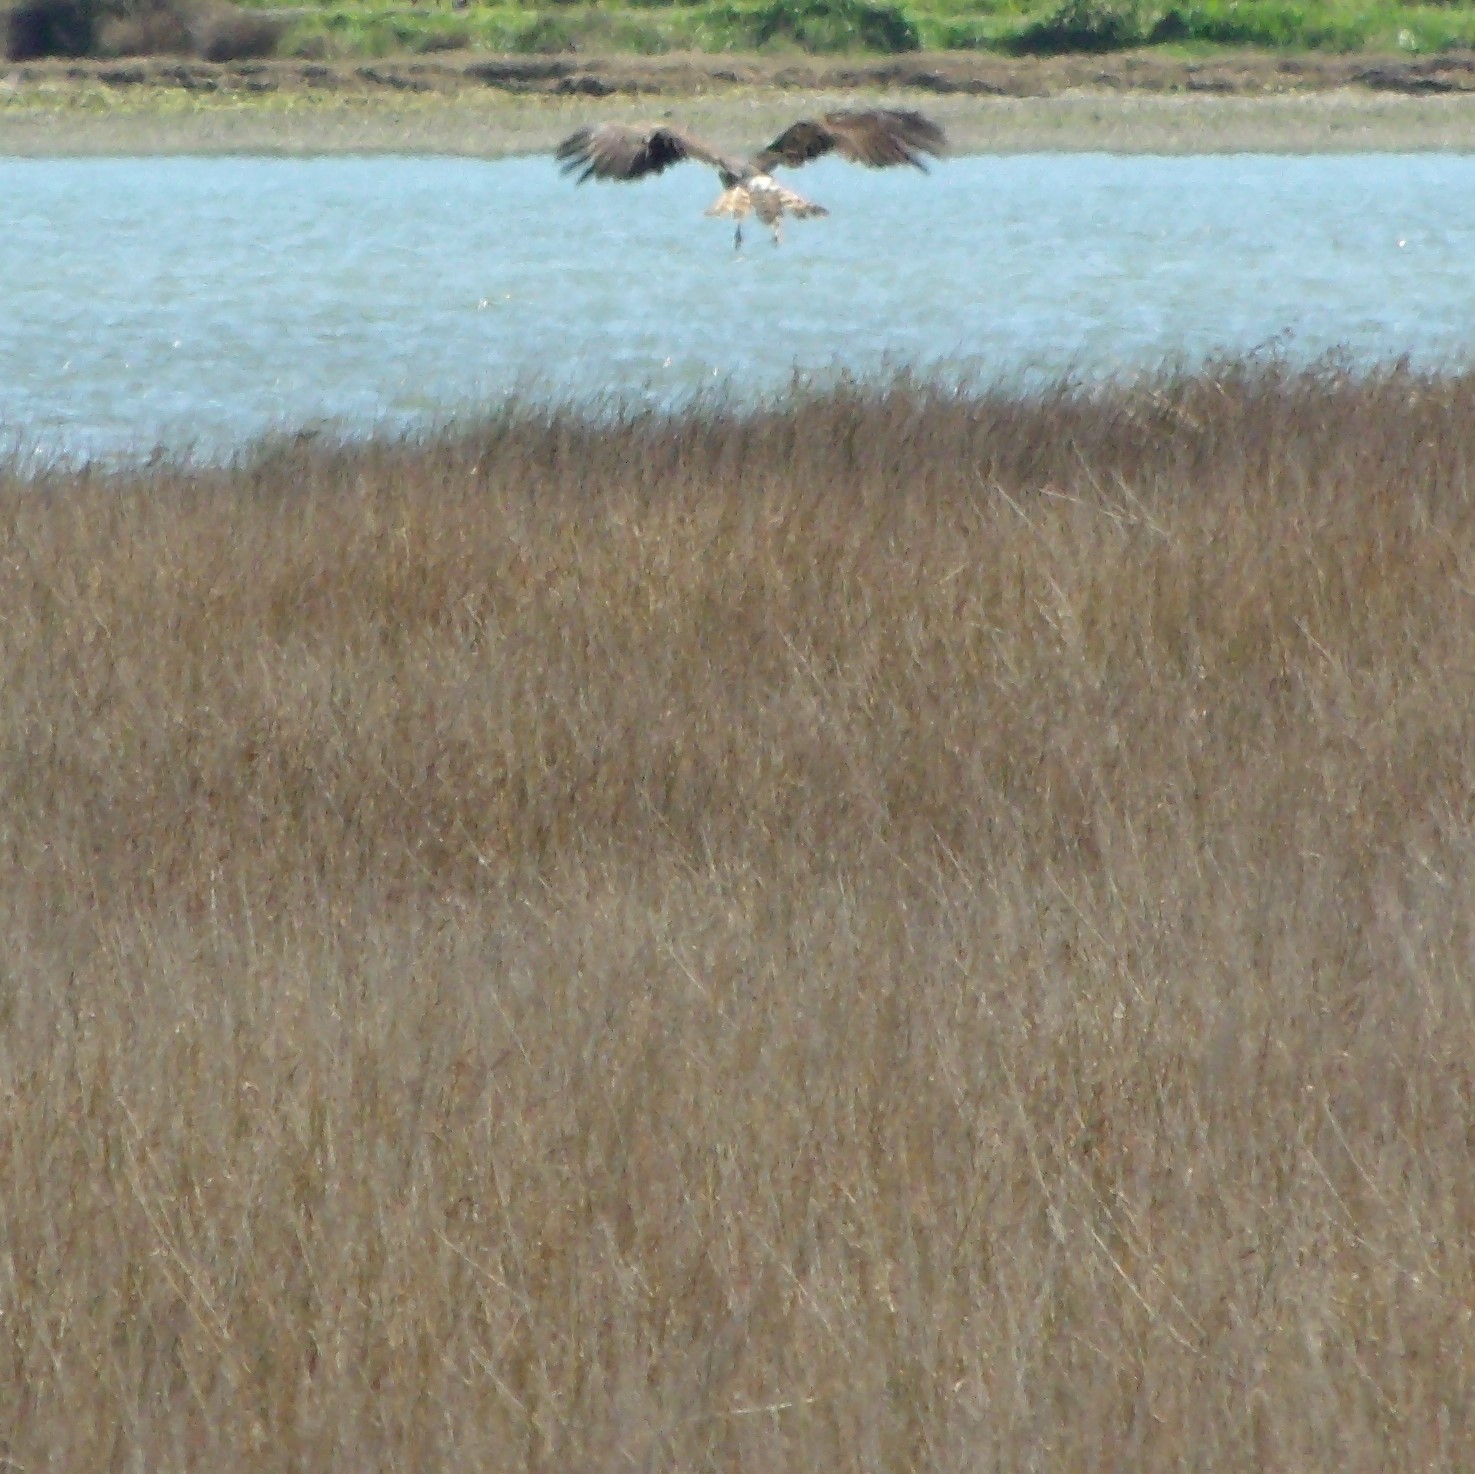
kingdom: Animalia
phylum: Chordata
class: Aves
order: Accipitriformes
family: Accipitridae
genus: Circus
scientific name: Circus approximans
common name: Swamp harrier
